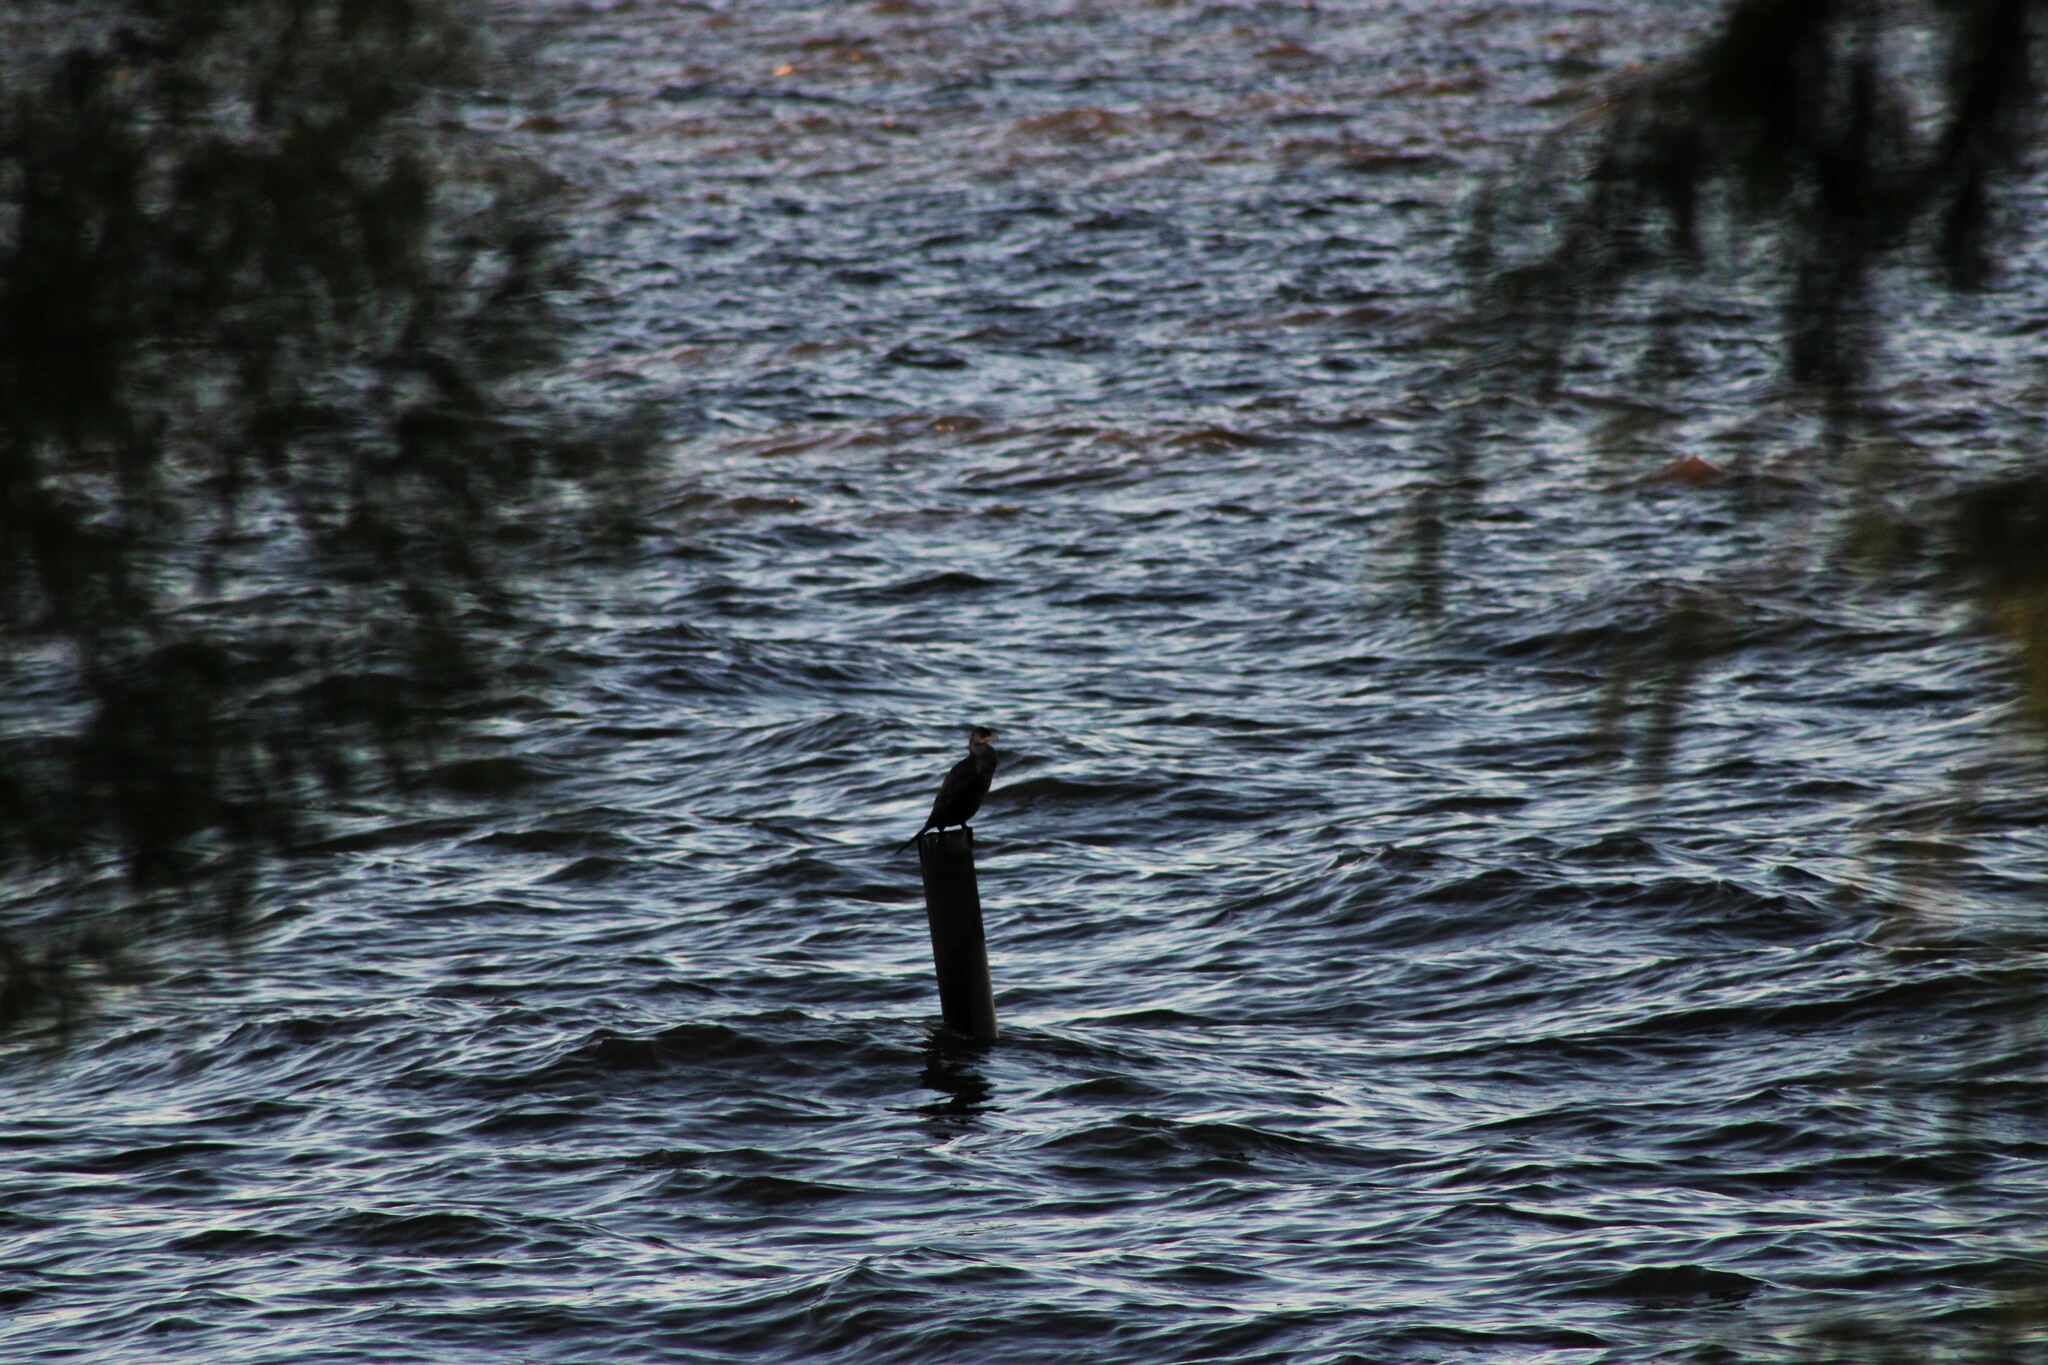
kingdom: Animalia
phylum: Chordata
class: Aves
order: Suliformes
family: Phalacrocoracidae
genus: Phalacrocorax
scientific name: Phalacrocorax brasilianus
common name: Neotropic cormorant
